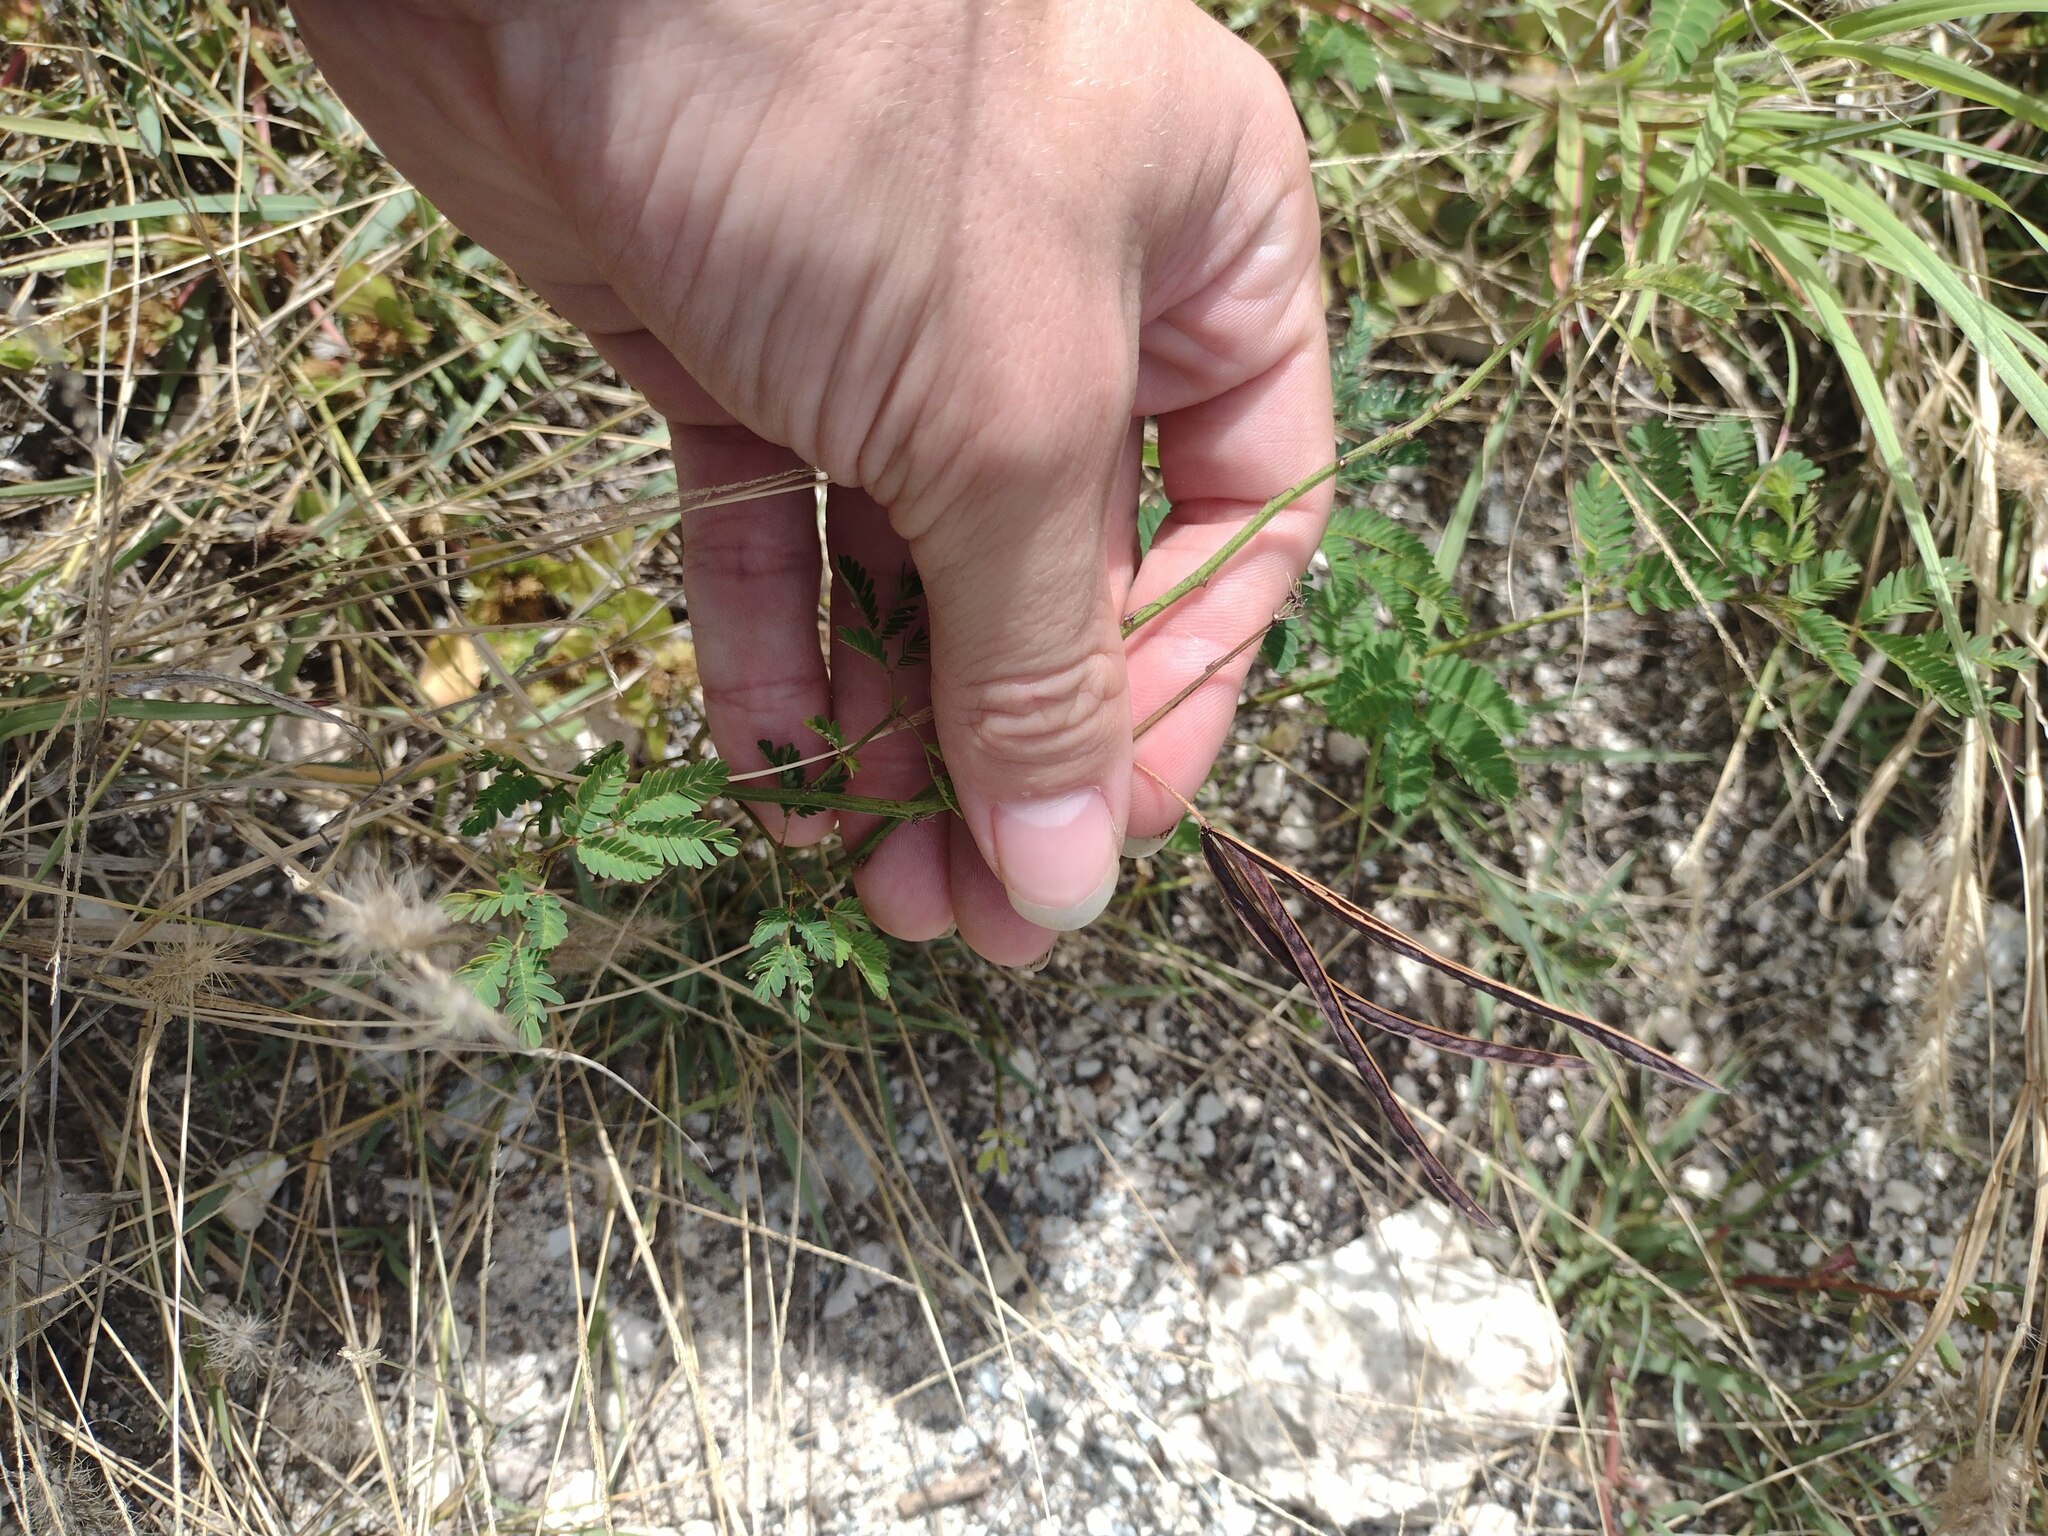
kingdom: Plantae
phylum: Tracheophyta
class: Magnoliopsida
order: Fabales
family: Fabaceae
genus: Desmanthus
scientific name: Desmanthus pernambucanus
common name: Pigeon bundleflower
